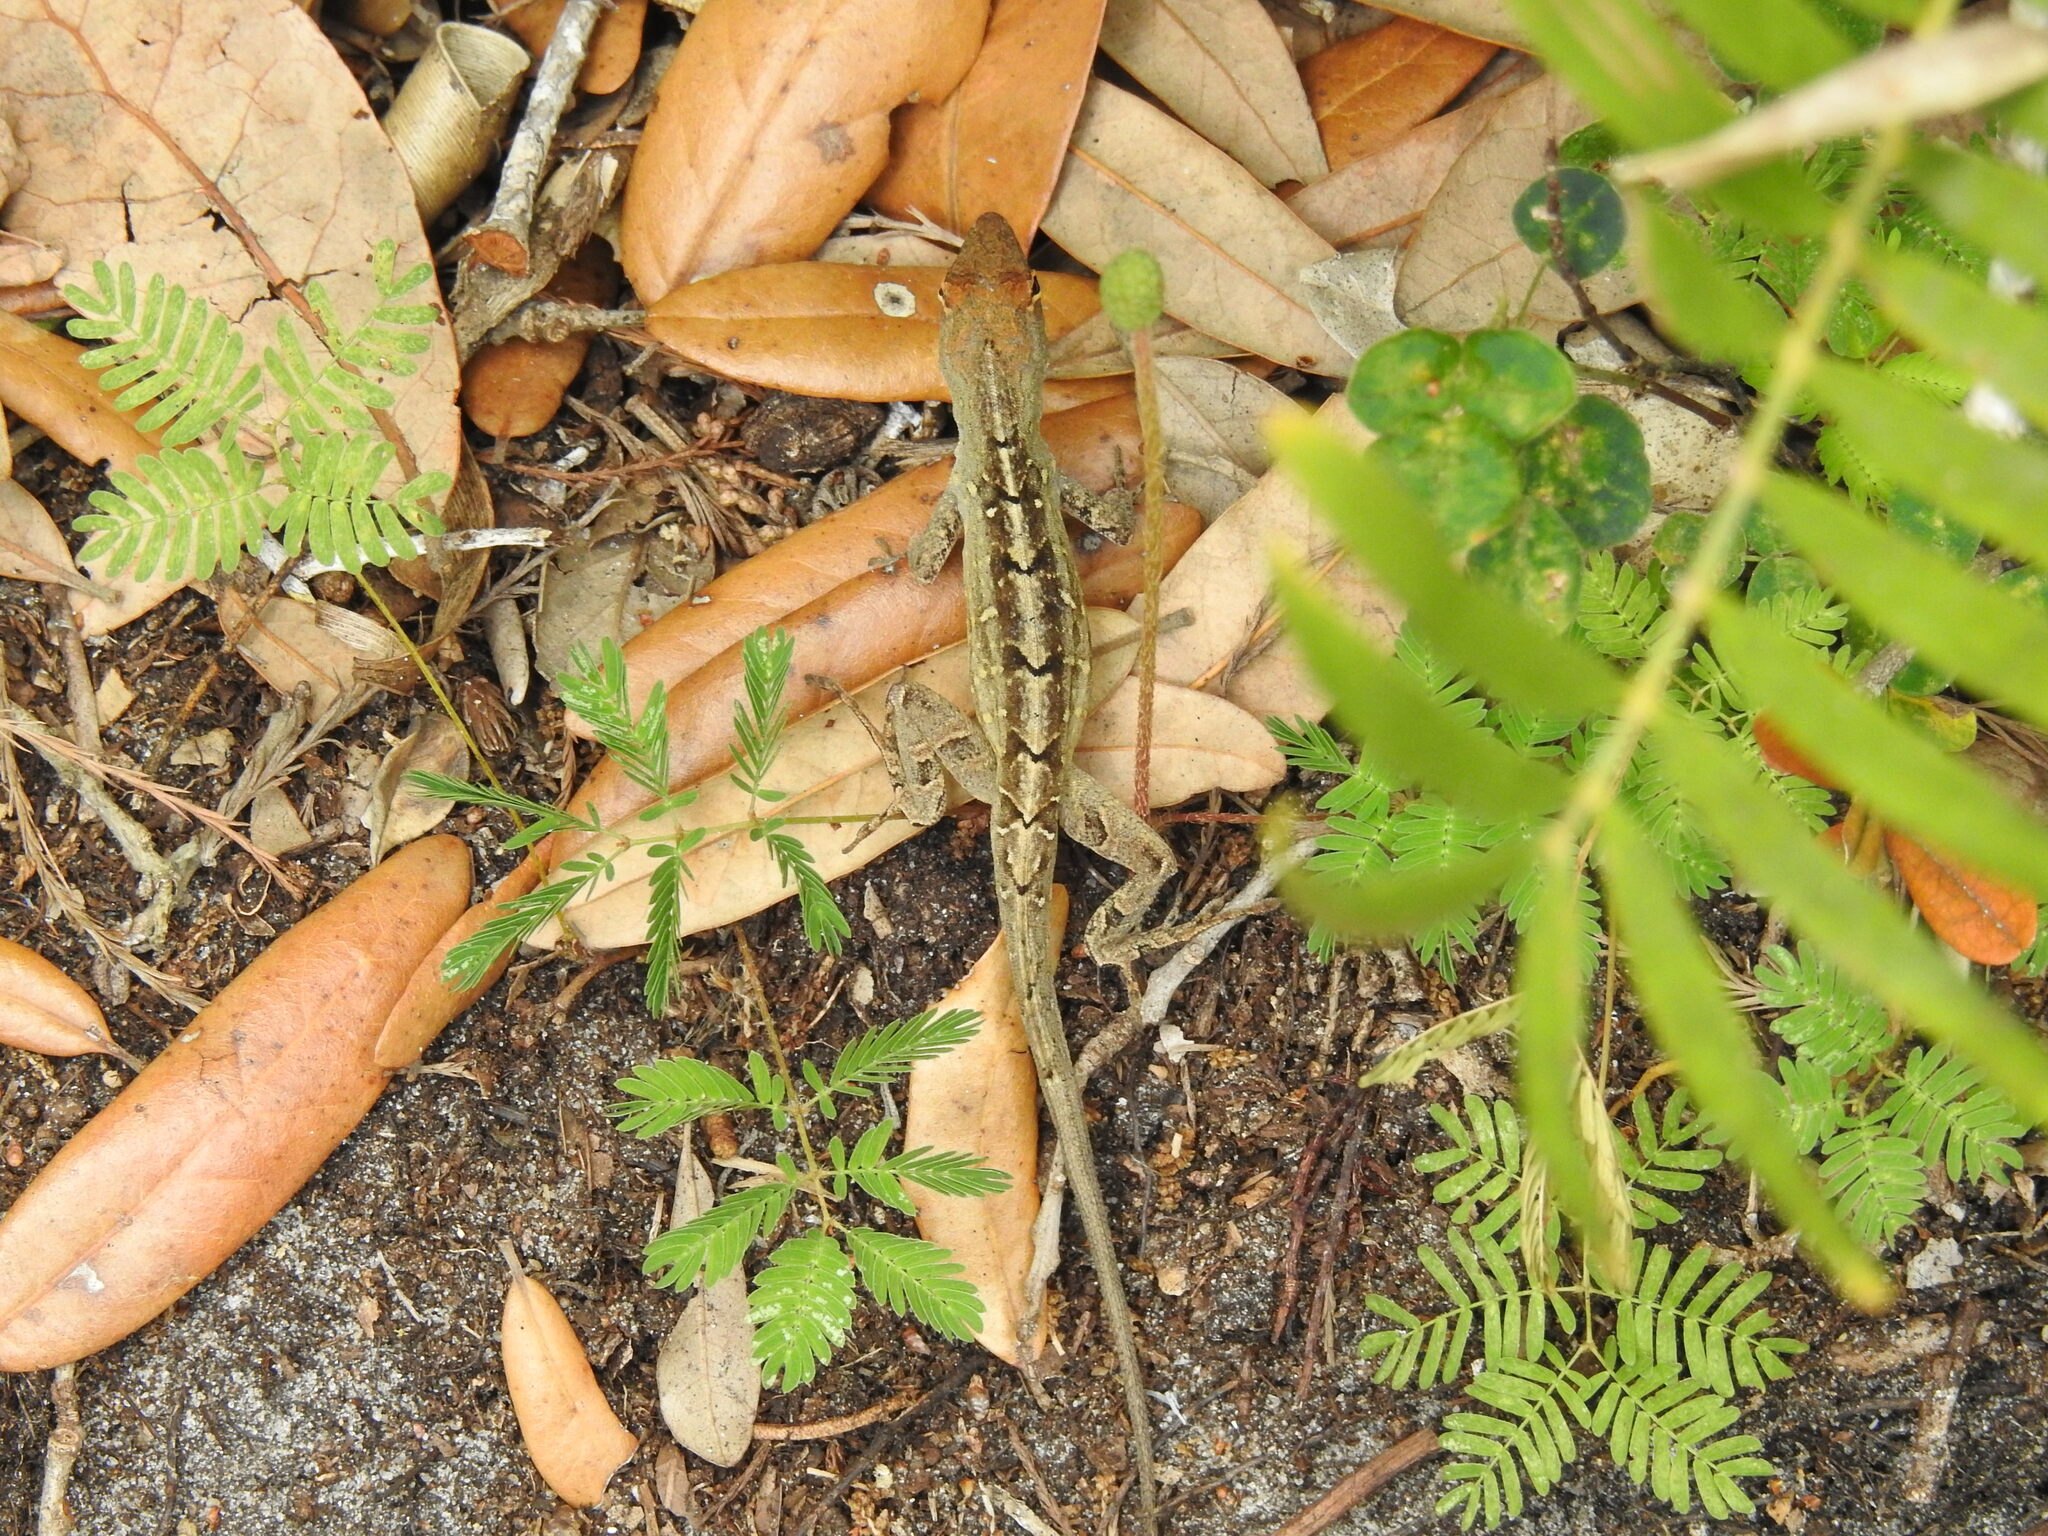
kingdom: Animalia
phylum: Chordata
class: Squamata
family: Dactyloidae
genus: Anolis
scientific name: Anolis sagrei
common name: Brown anole
